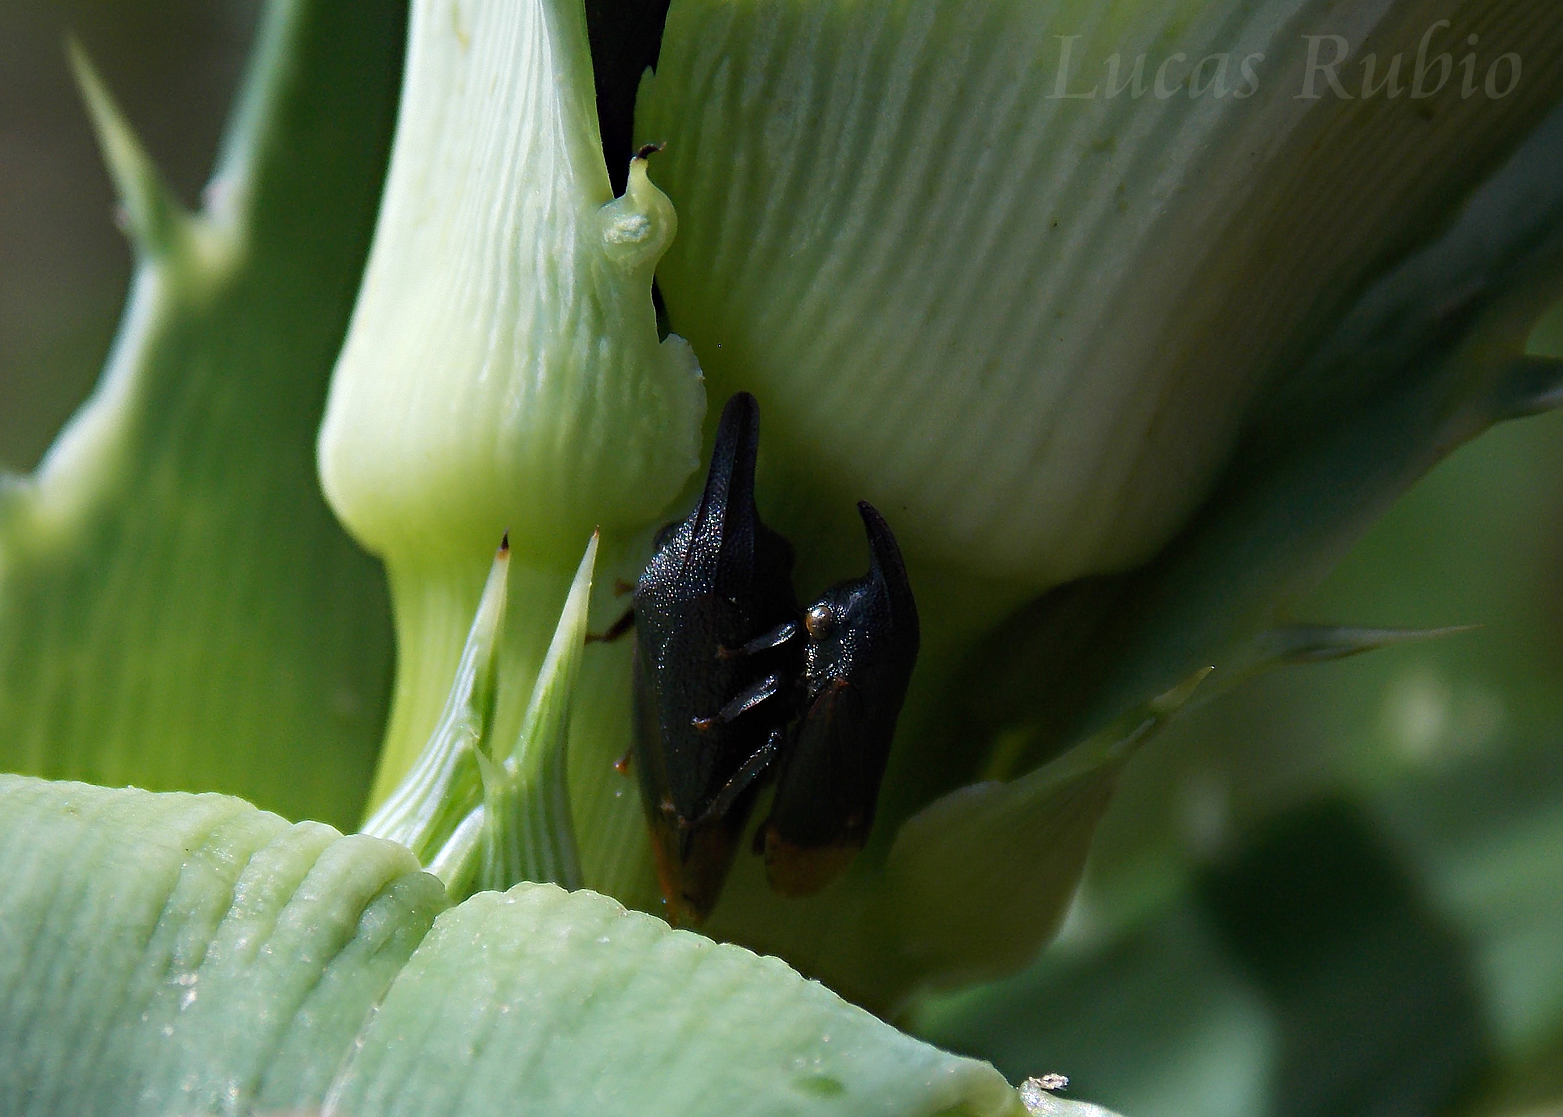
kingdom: Animalia
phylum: Arthropoda
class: Insecta
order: Hemiptera
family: Membracidae
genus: Kronides
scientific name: Kronides incumbens
